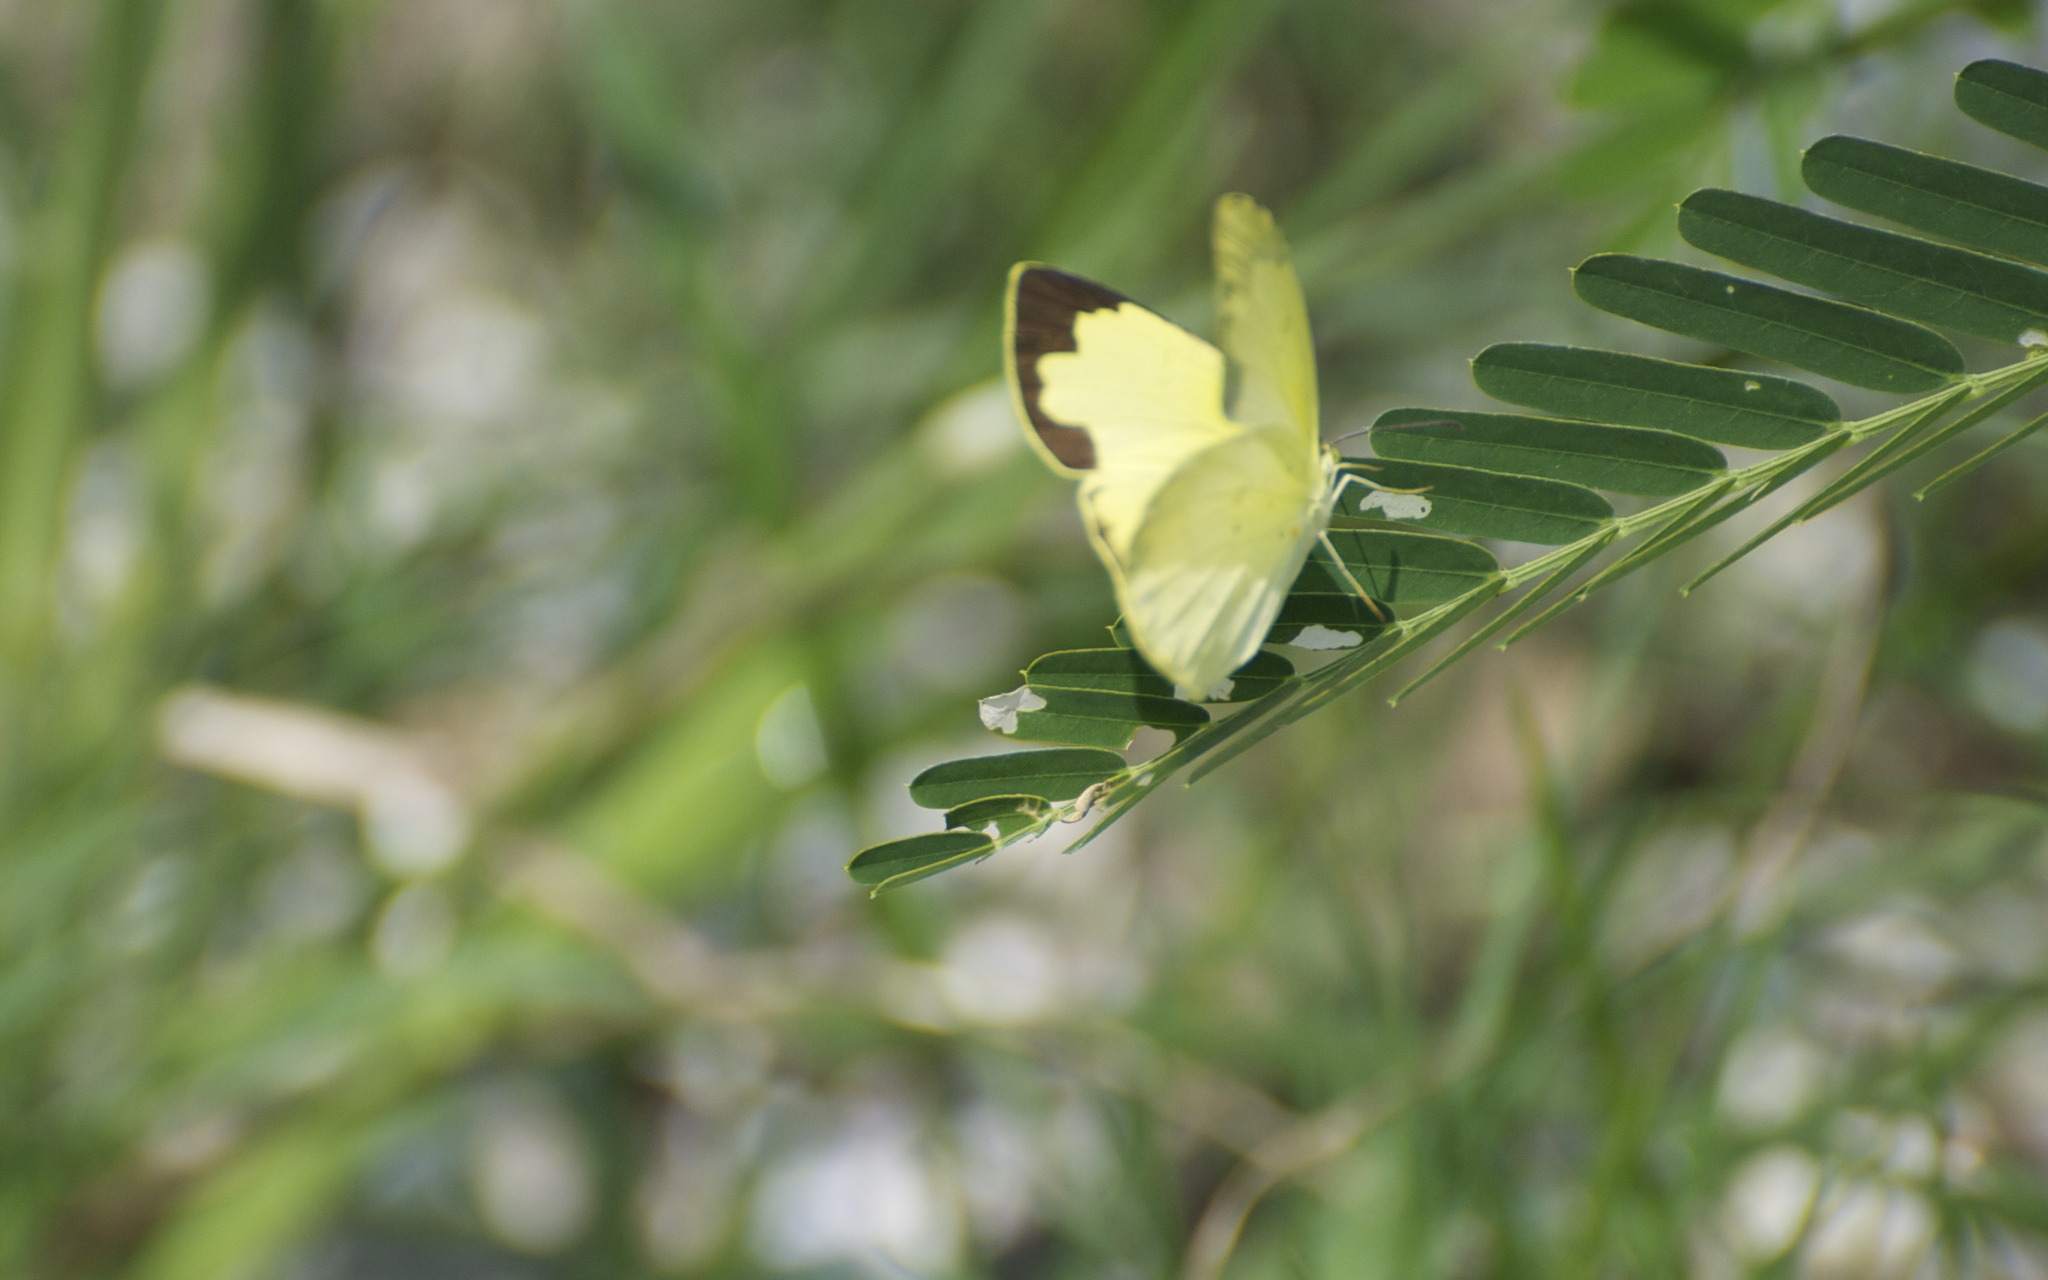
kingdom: Animalia
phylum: Arthropoda
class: Insecta
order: Lepidoptera
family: Pieridae
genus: Eurema
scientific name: Eurema hecabe
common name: Pale grass yellow
